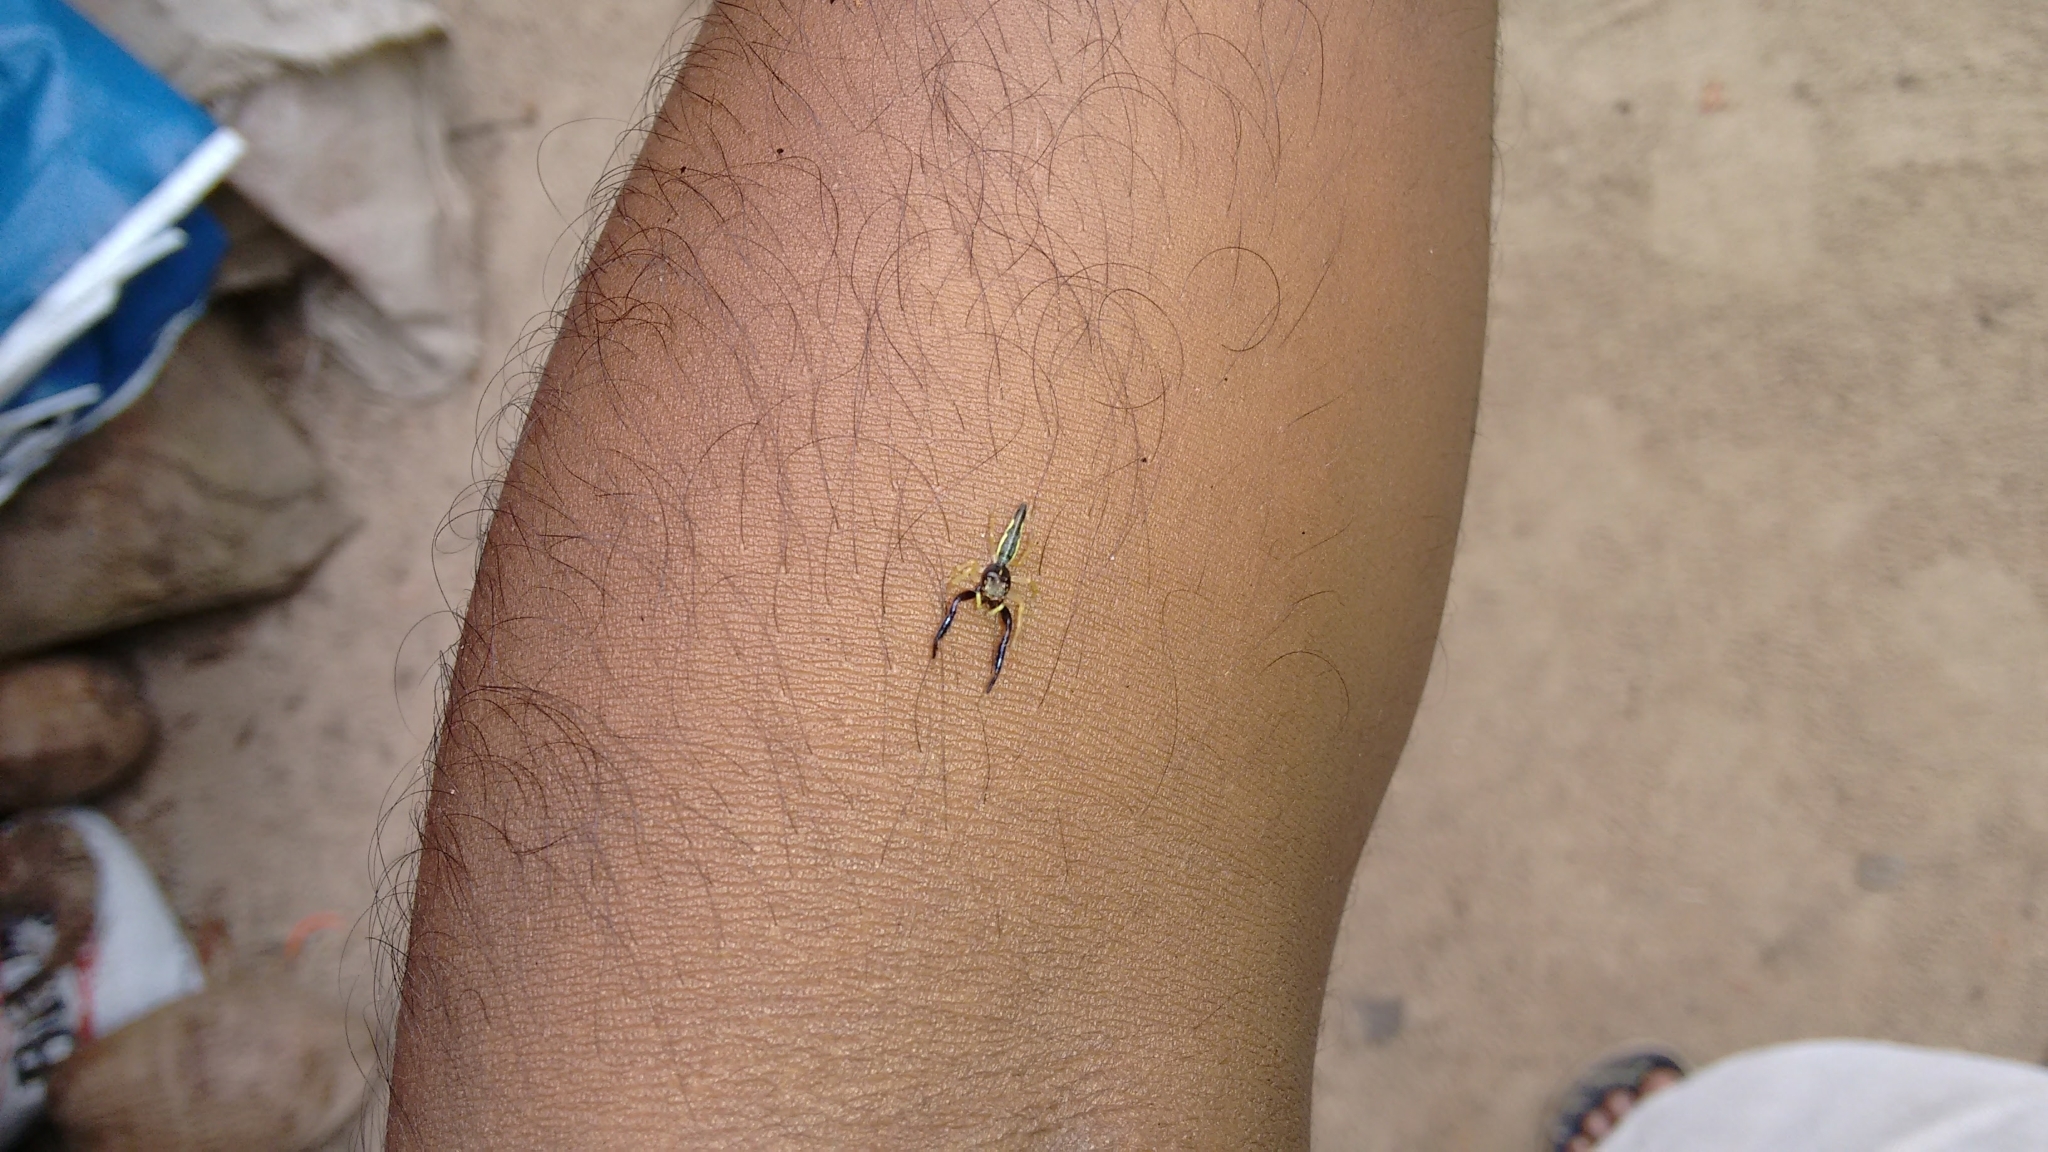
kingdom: Animalia
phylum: Arthropoda
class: Arachnida
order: Araneae
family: Salticidae
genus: Indopadilla
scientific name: Indopadilla insularis
